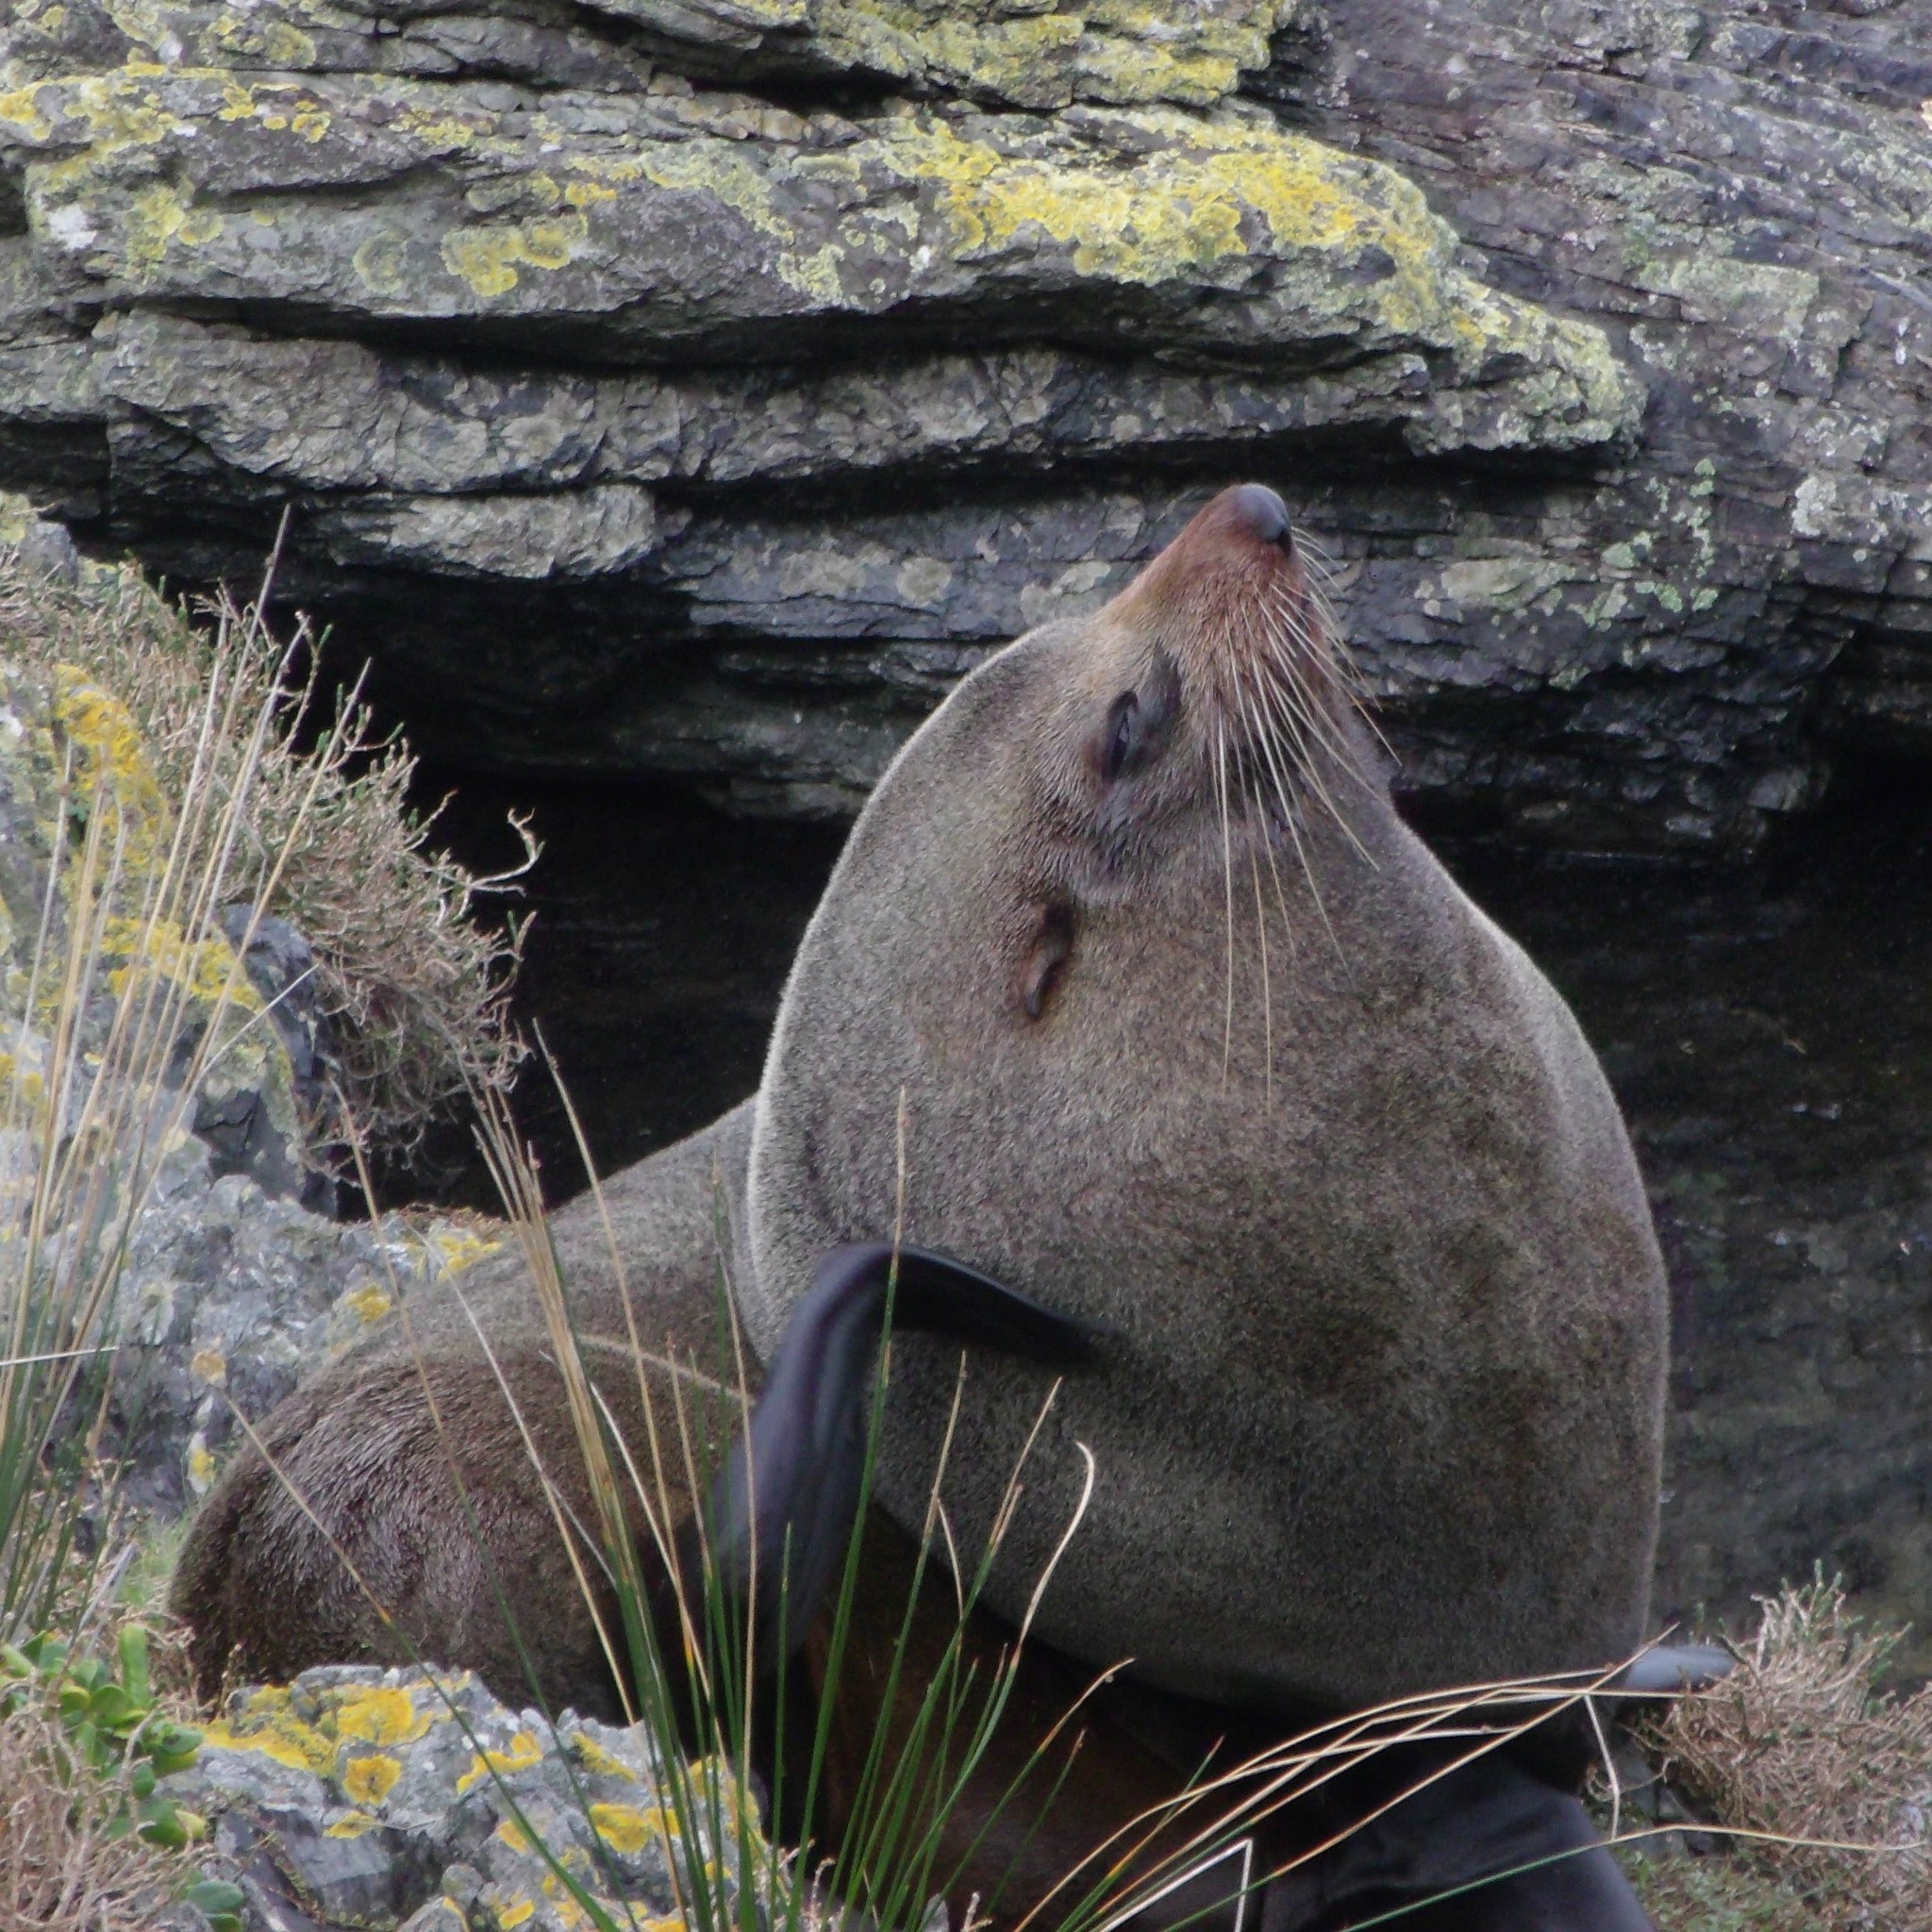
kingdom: Animalia
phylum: Chordata
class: Mammalia
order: Carnivora
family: Otariidae
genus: Arctocephalus
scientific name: Arctocephalus forsteri
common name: New zealand fur seal
